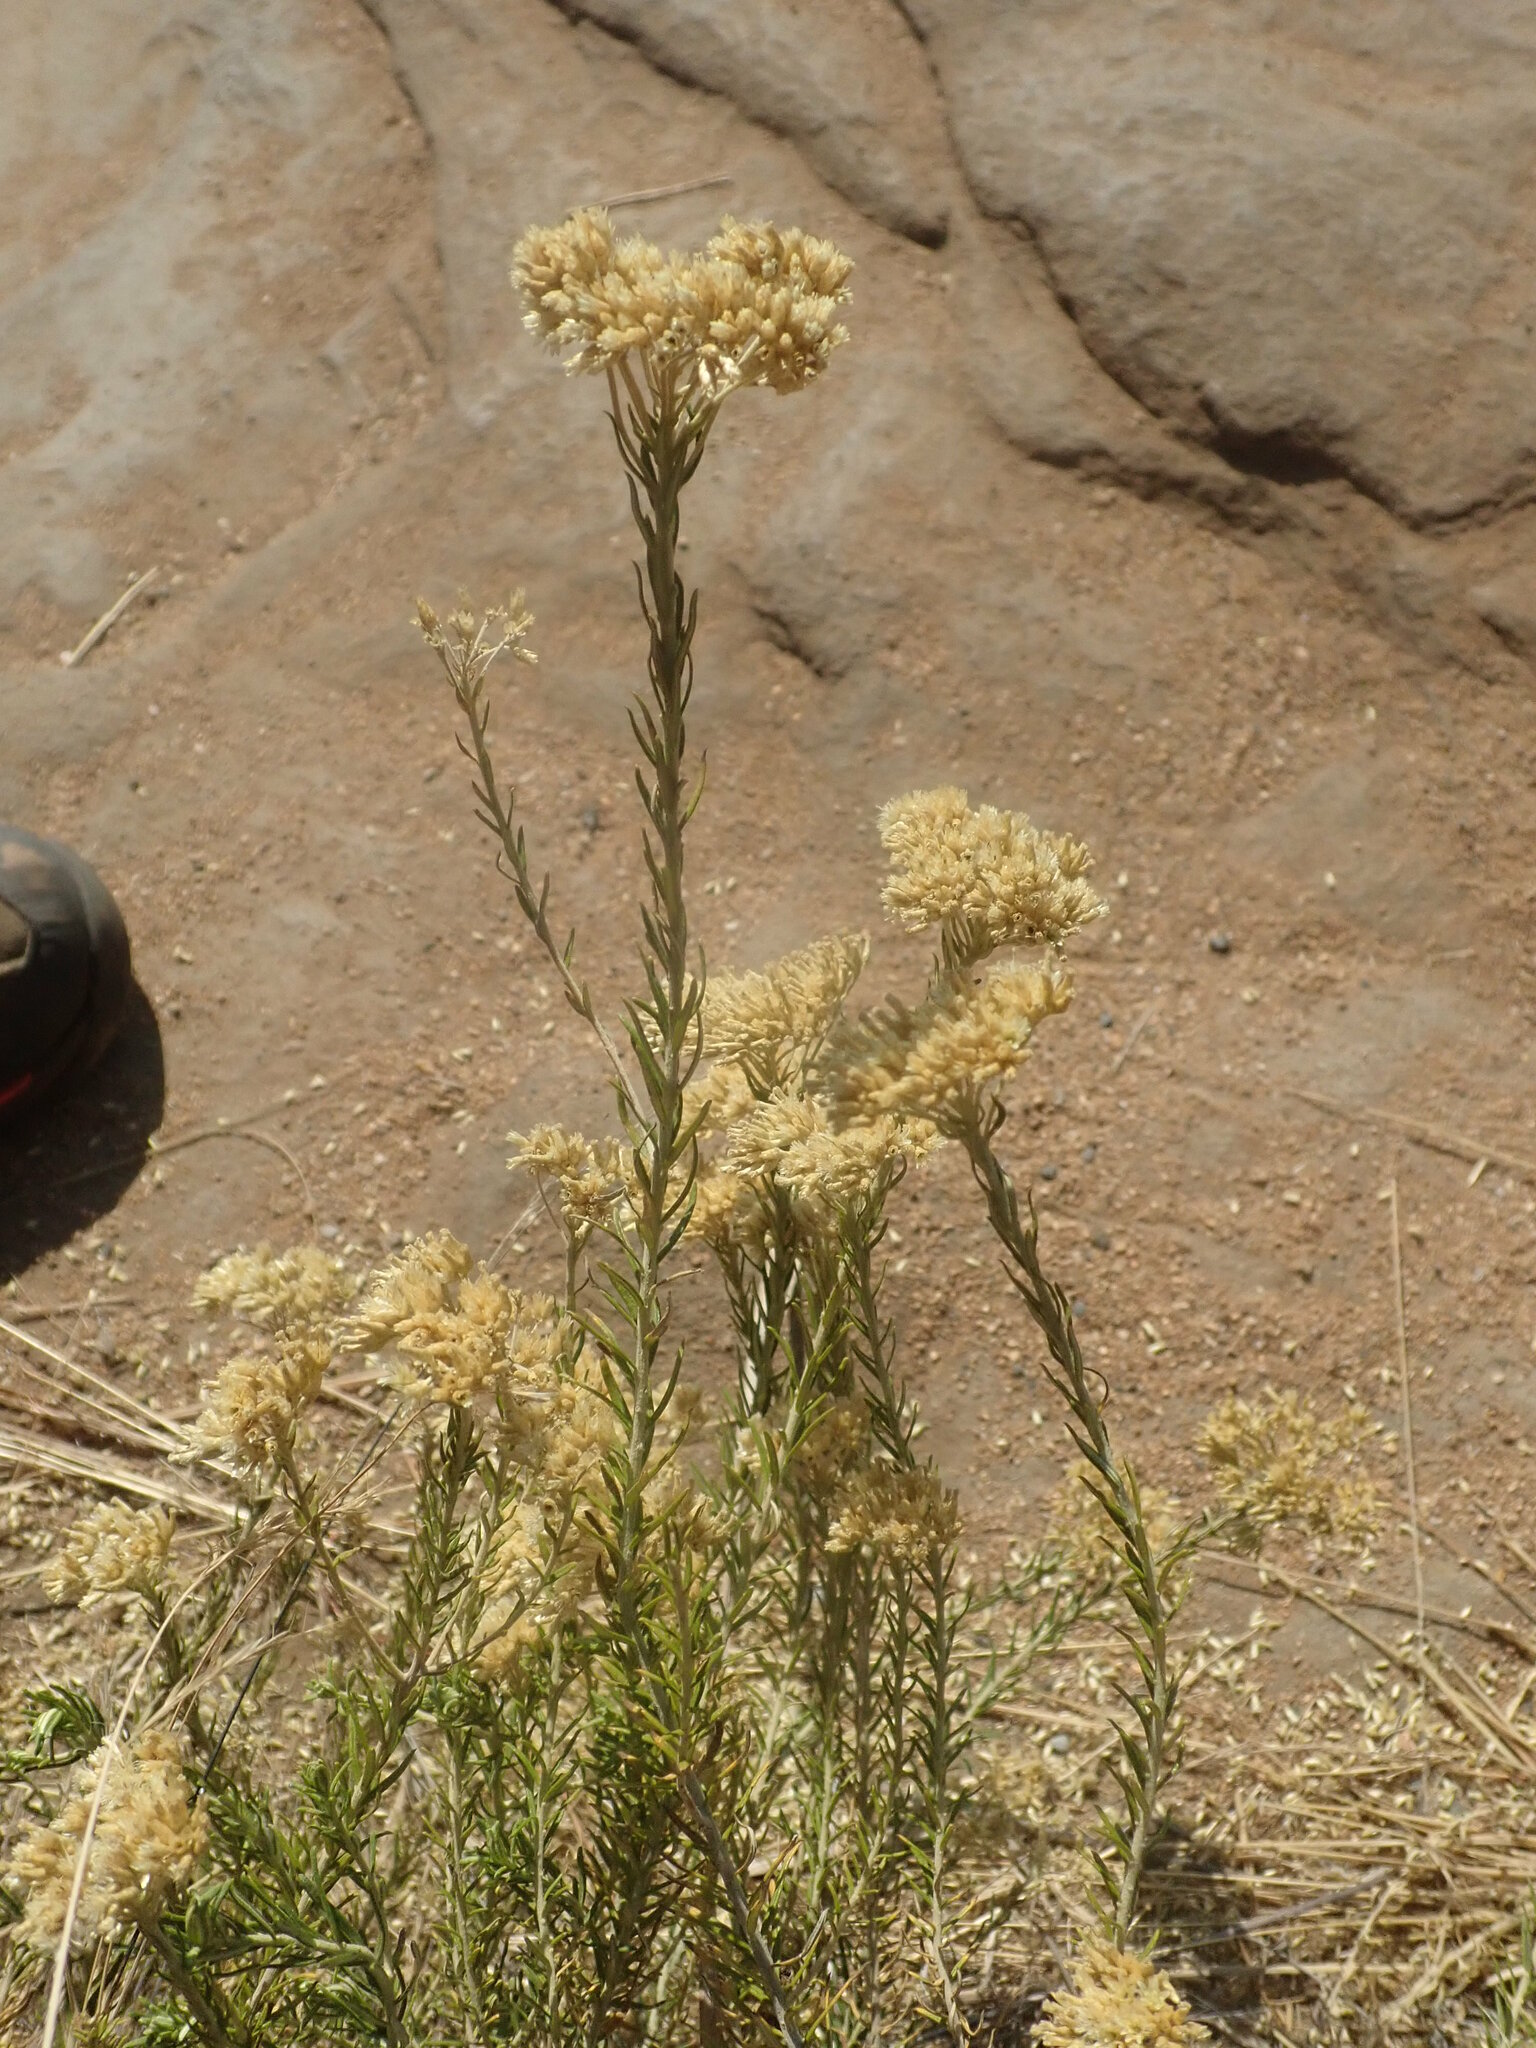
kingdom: Plantae
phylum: Tracheophyta
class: Magnoliopsida
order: Asterales
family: Asteraceae
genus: Helichrysum
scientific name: Helichrysum kraussii
